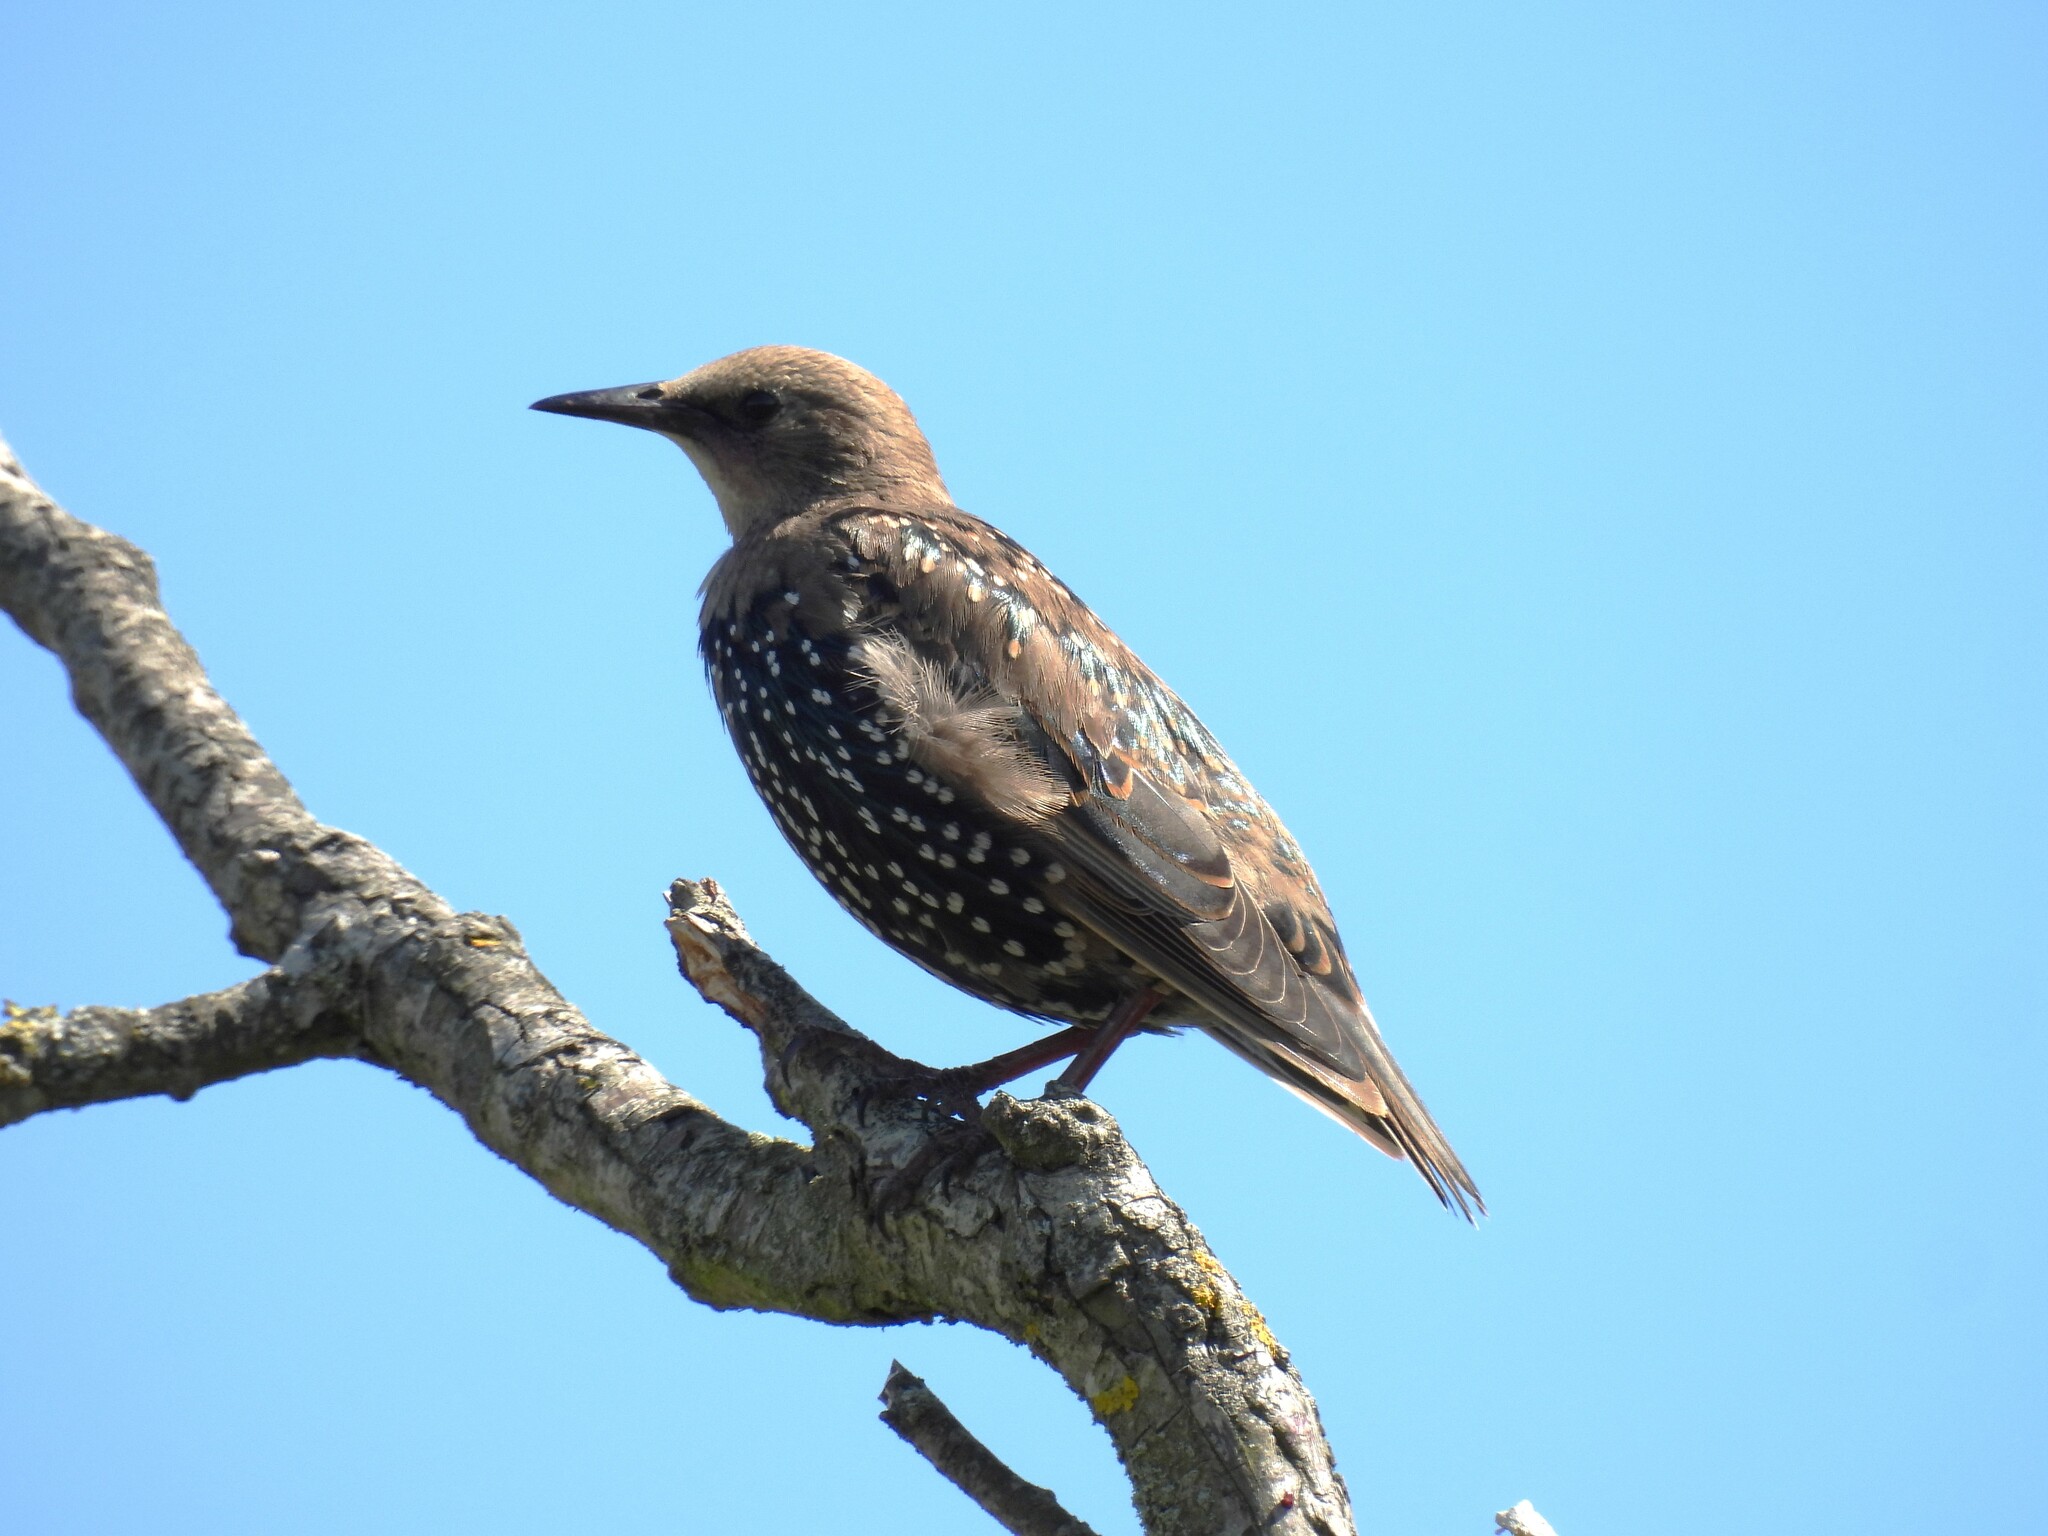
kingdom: Animalia
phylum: Chordata
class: Aves
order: Passeriformes
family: Sturnidae
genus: Sturnus
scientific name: Sturnus vulgaris
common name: Common starling
